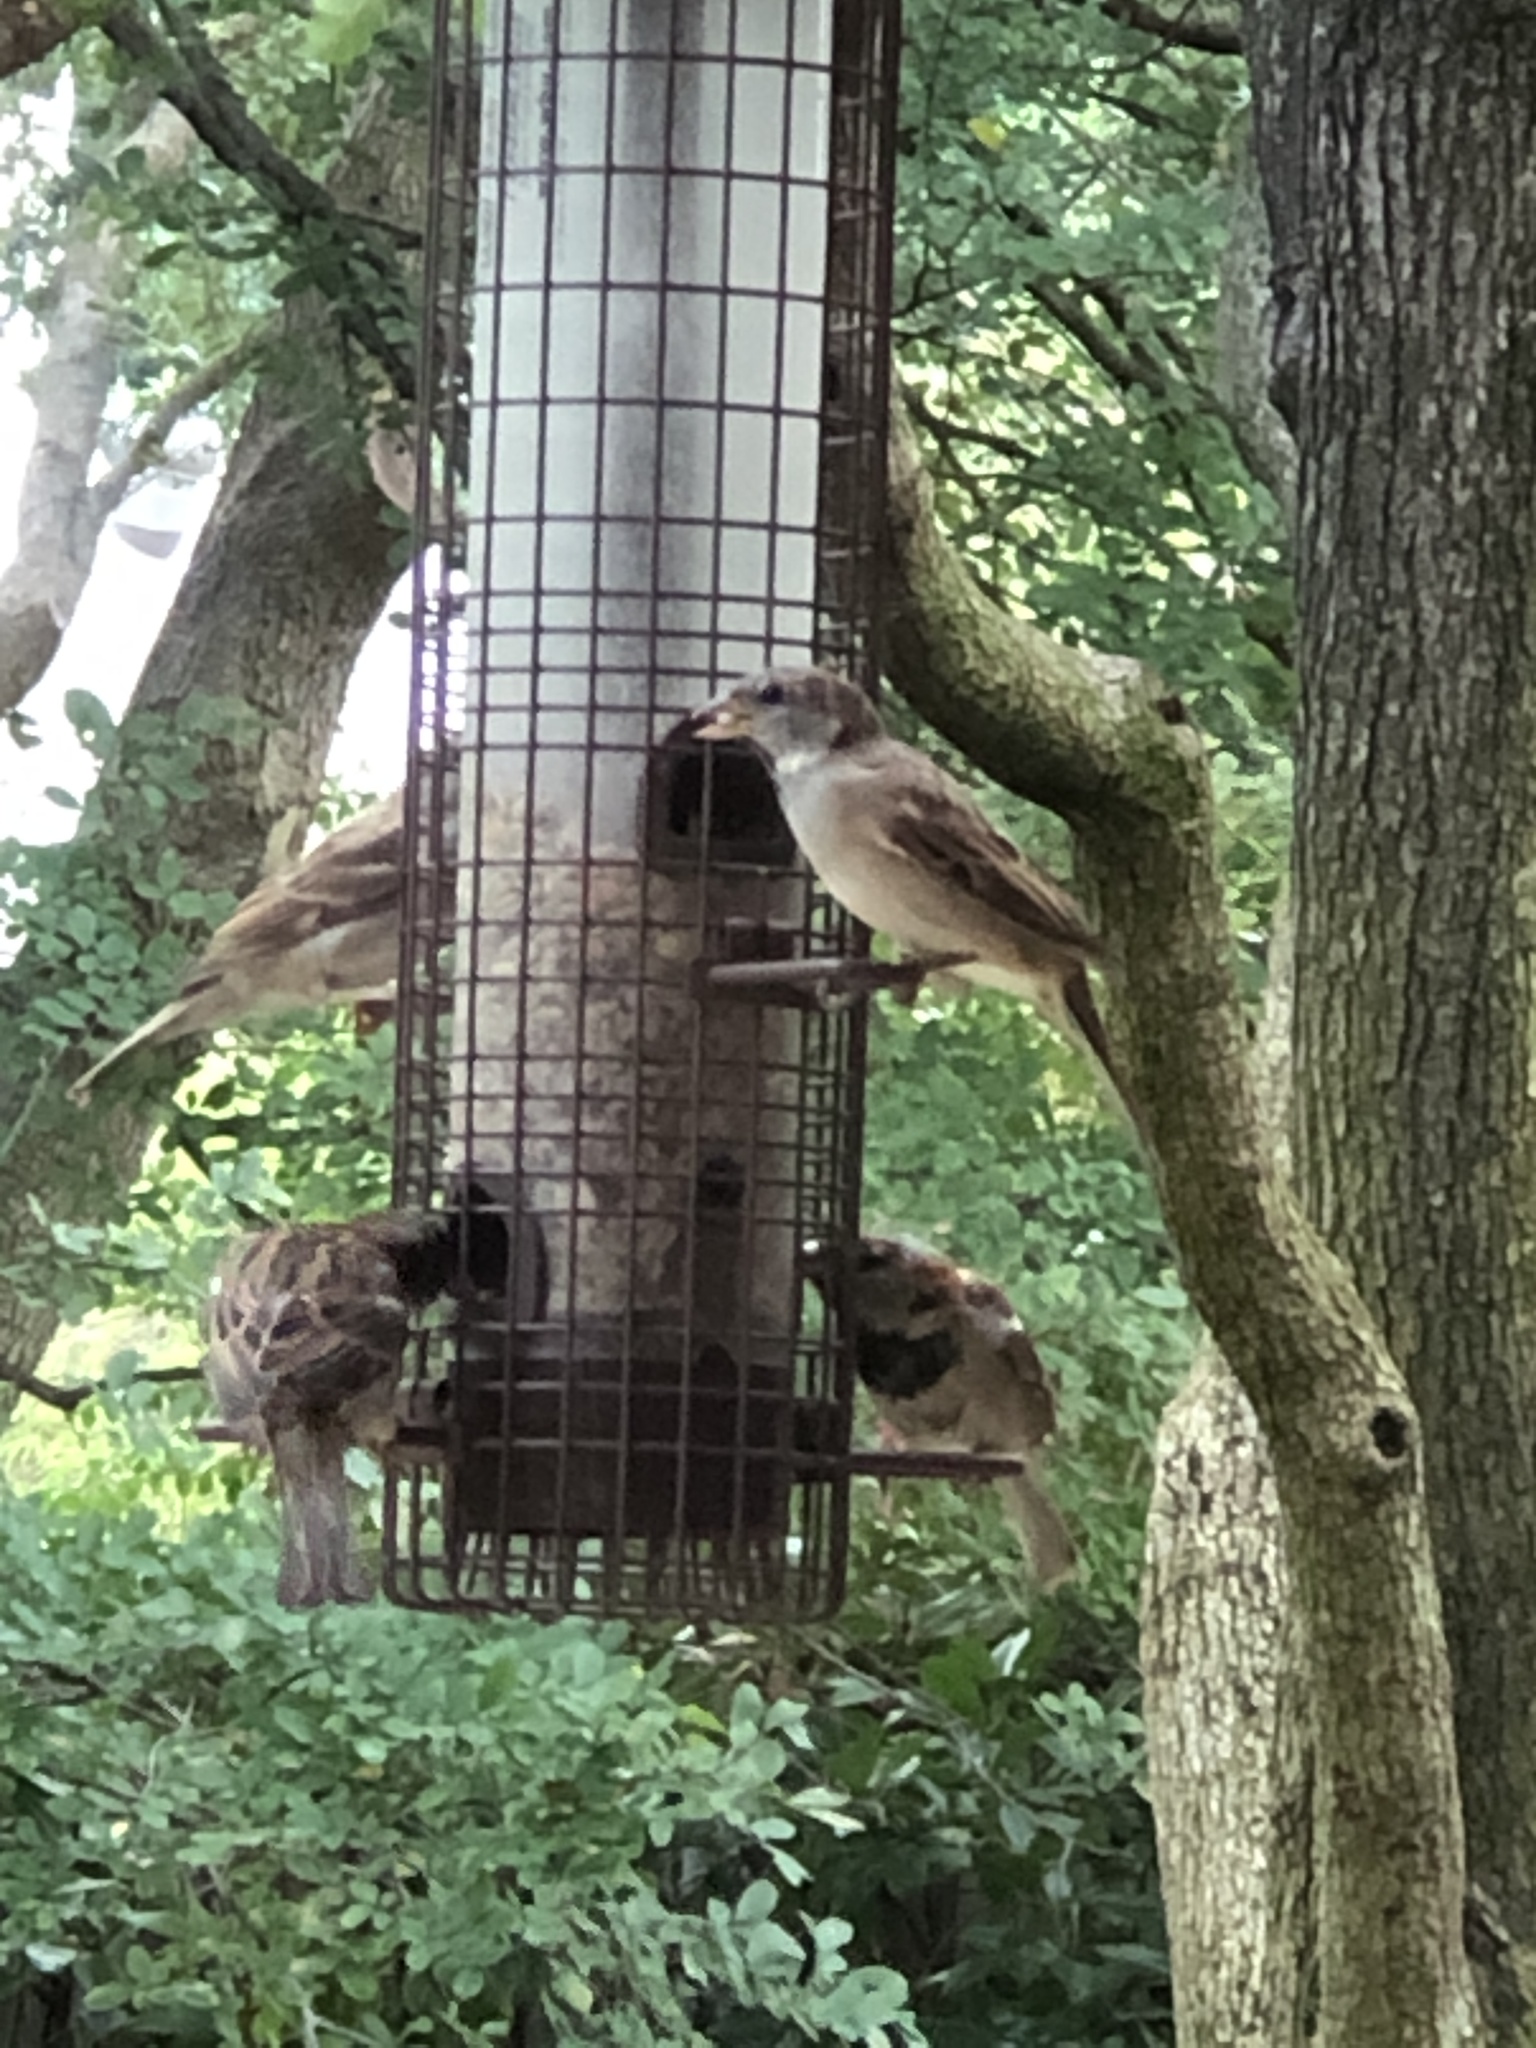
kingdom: Animalia
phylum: Chordata
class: Aves
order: Passeriformes
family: Passeridae
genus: Passer
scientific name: Passer domesticus
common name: House sparrow
